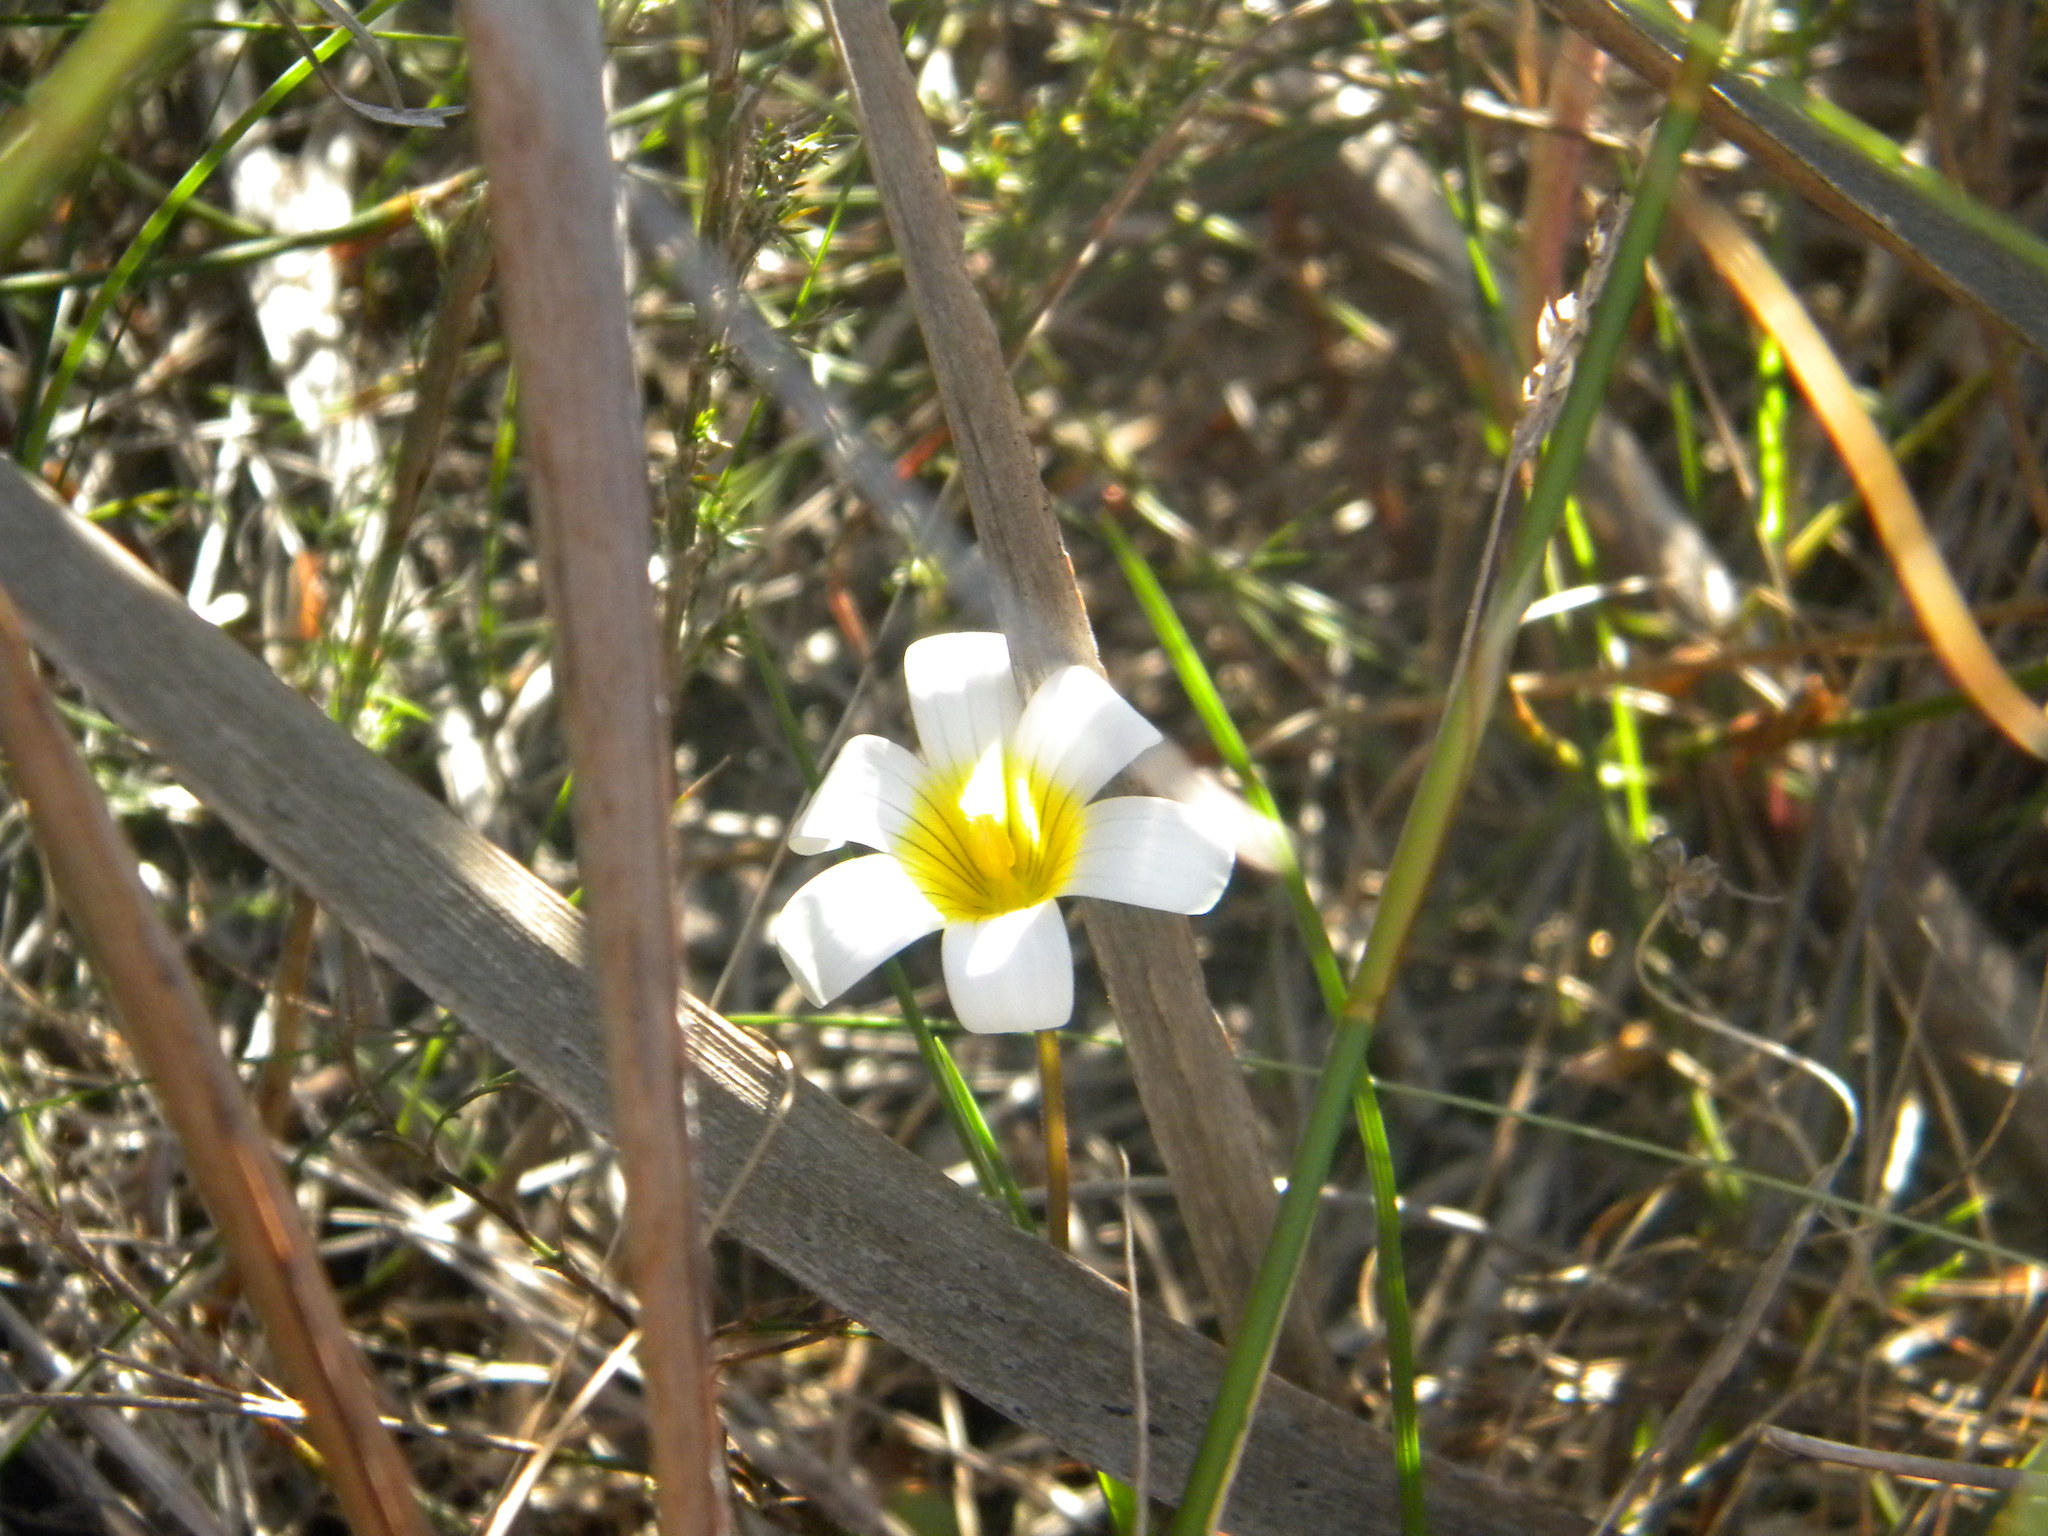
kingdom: Plantae
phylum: Tracheophyta
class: Liliopsida
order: Asparagales
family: Iridaceae
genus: Romulea
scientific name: Romulea flava
